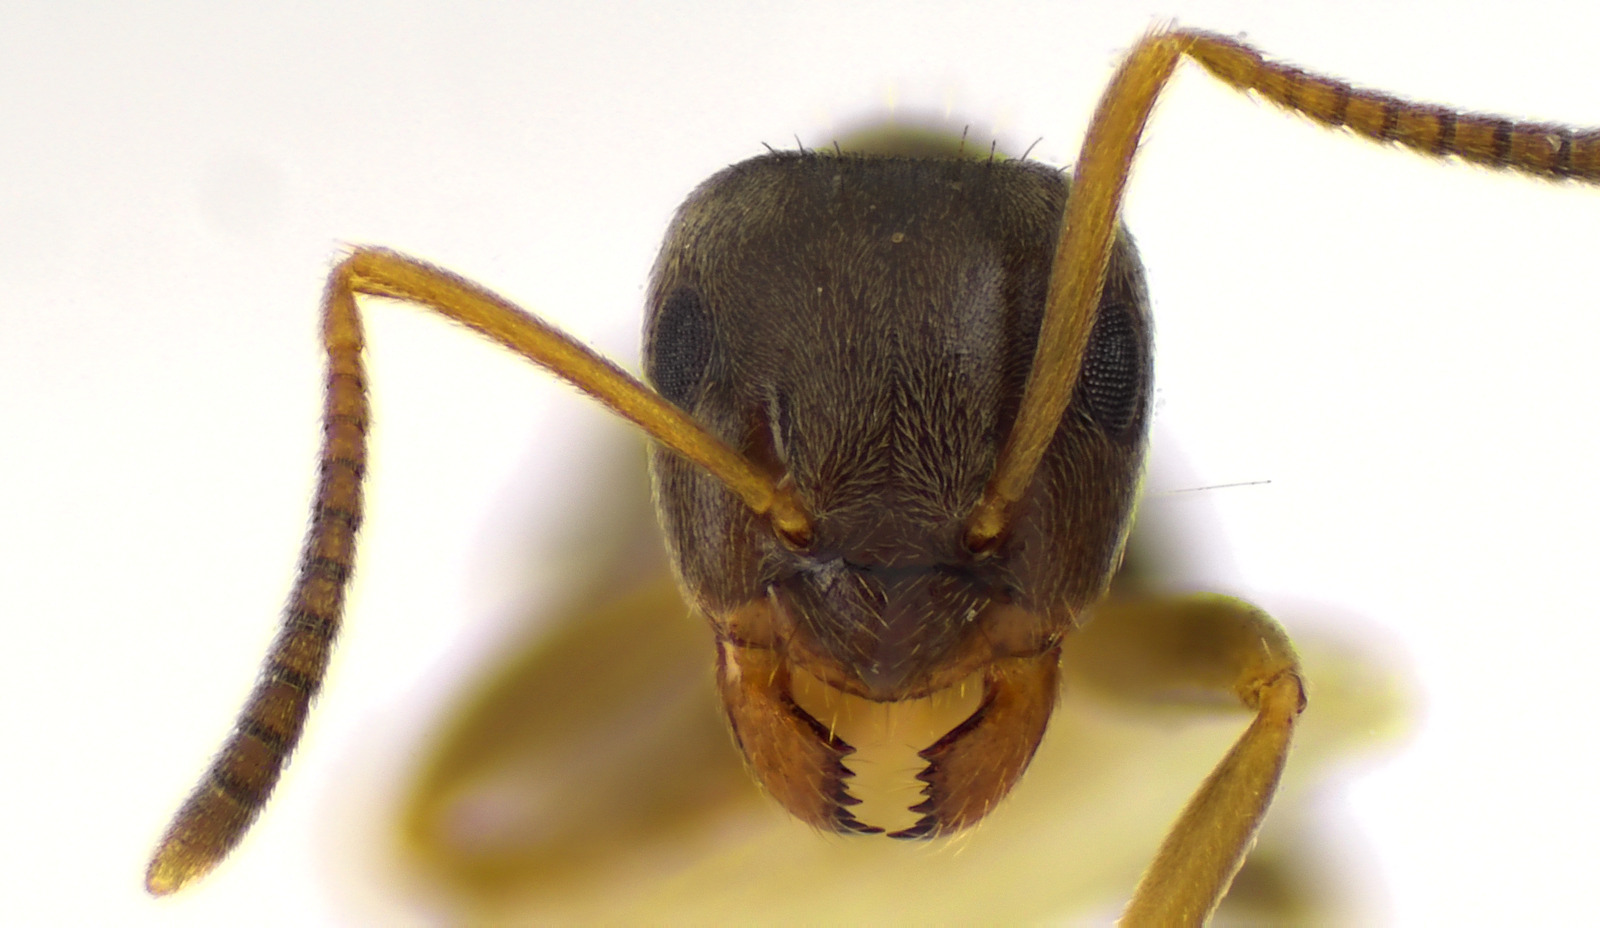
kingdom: Animalia
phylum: Arthropoda
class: Insecta
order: Hymenoptera
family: Formicidae
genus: Lasius
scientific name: Lasius americanus
